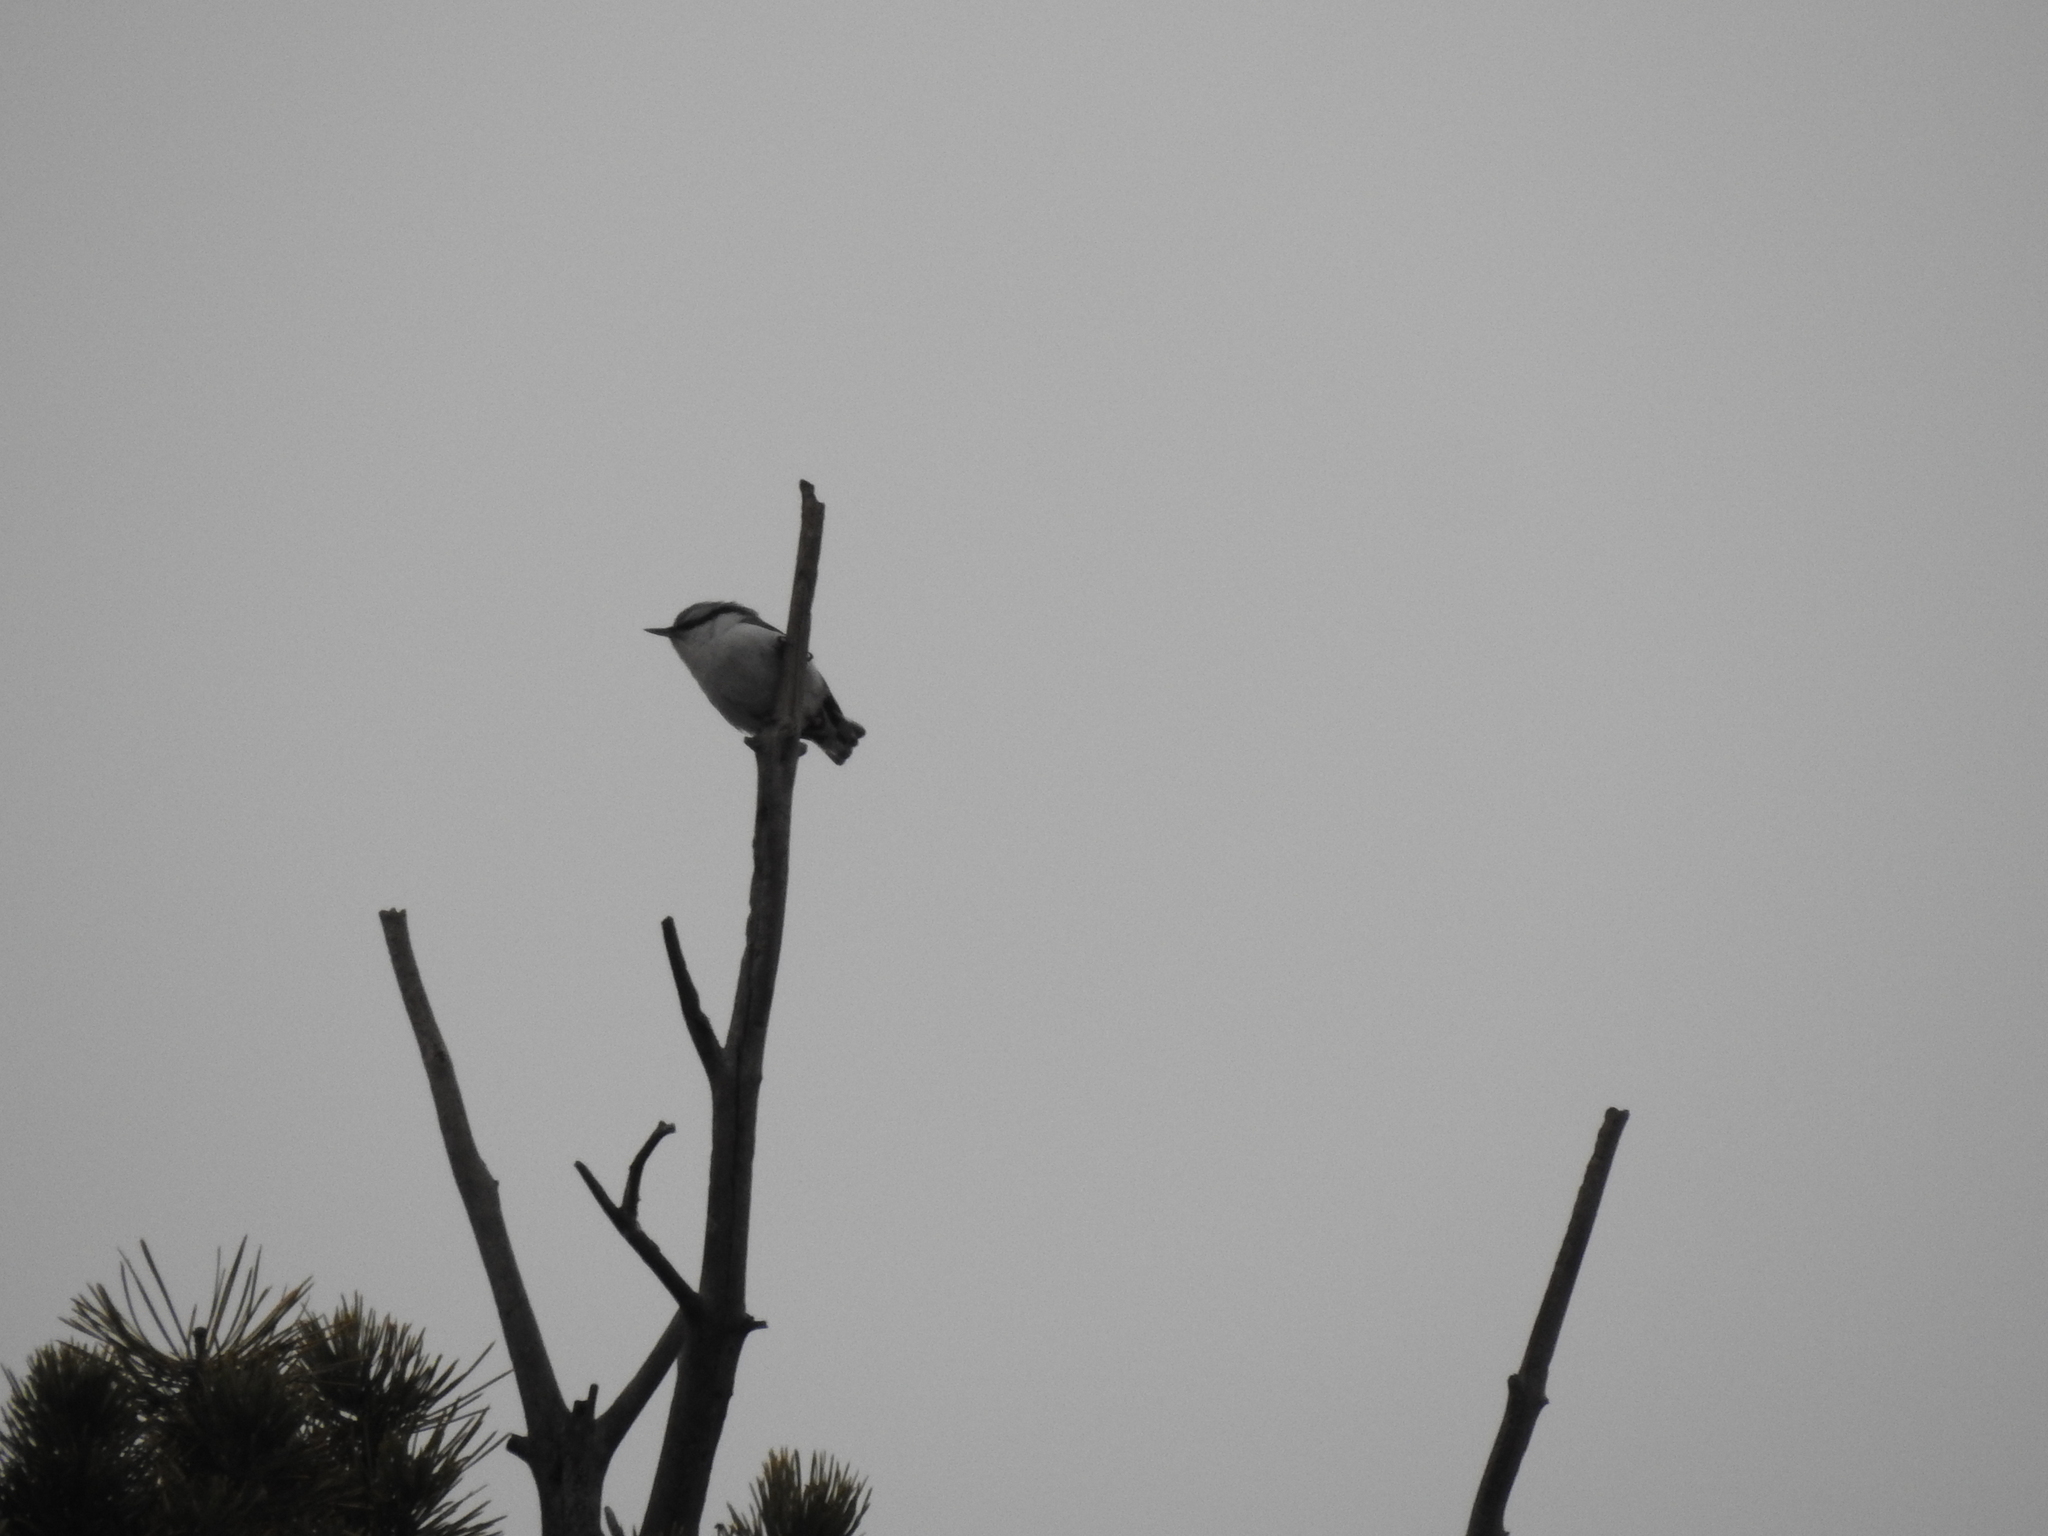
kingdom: Animalia
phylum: Chordata
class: Aves
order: Passeriformes
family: Sittidae
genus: Sitta
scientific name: Sitta europaea
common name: Eurasian nuthatch
